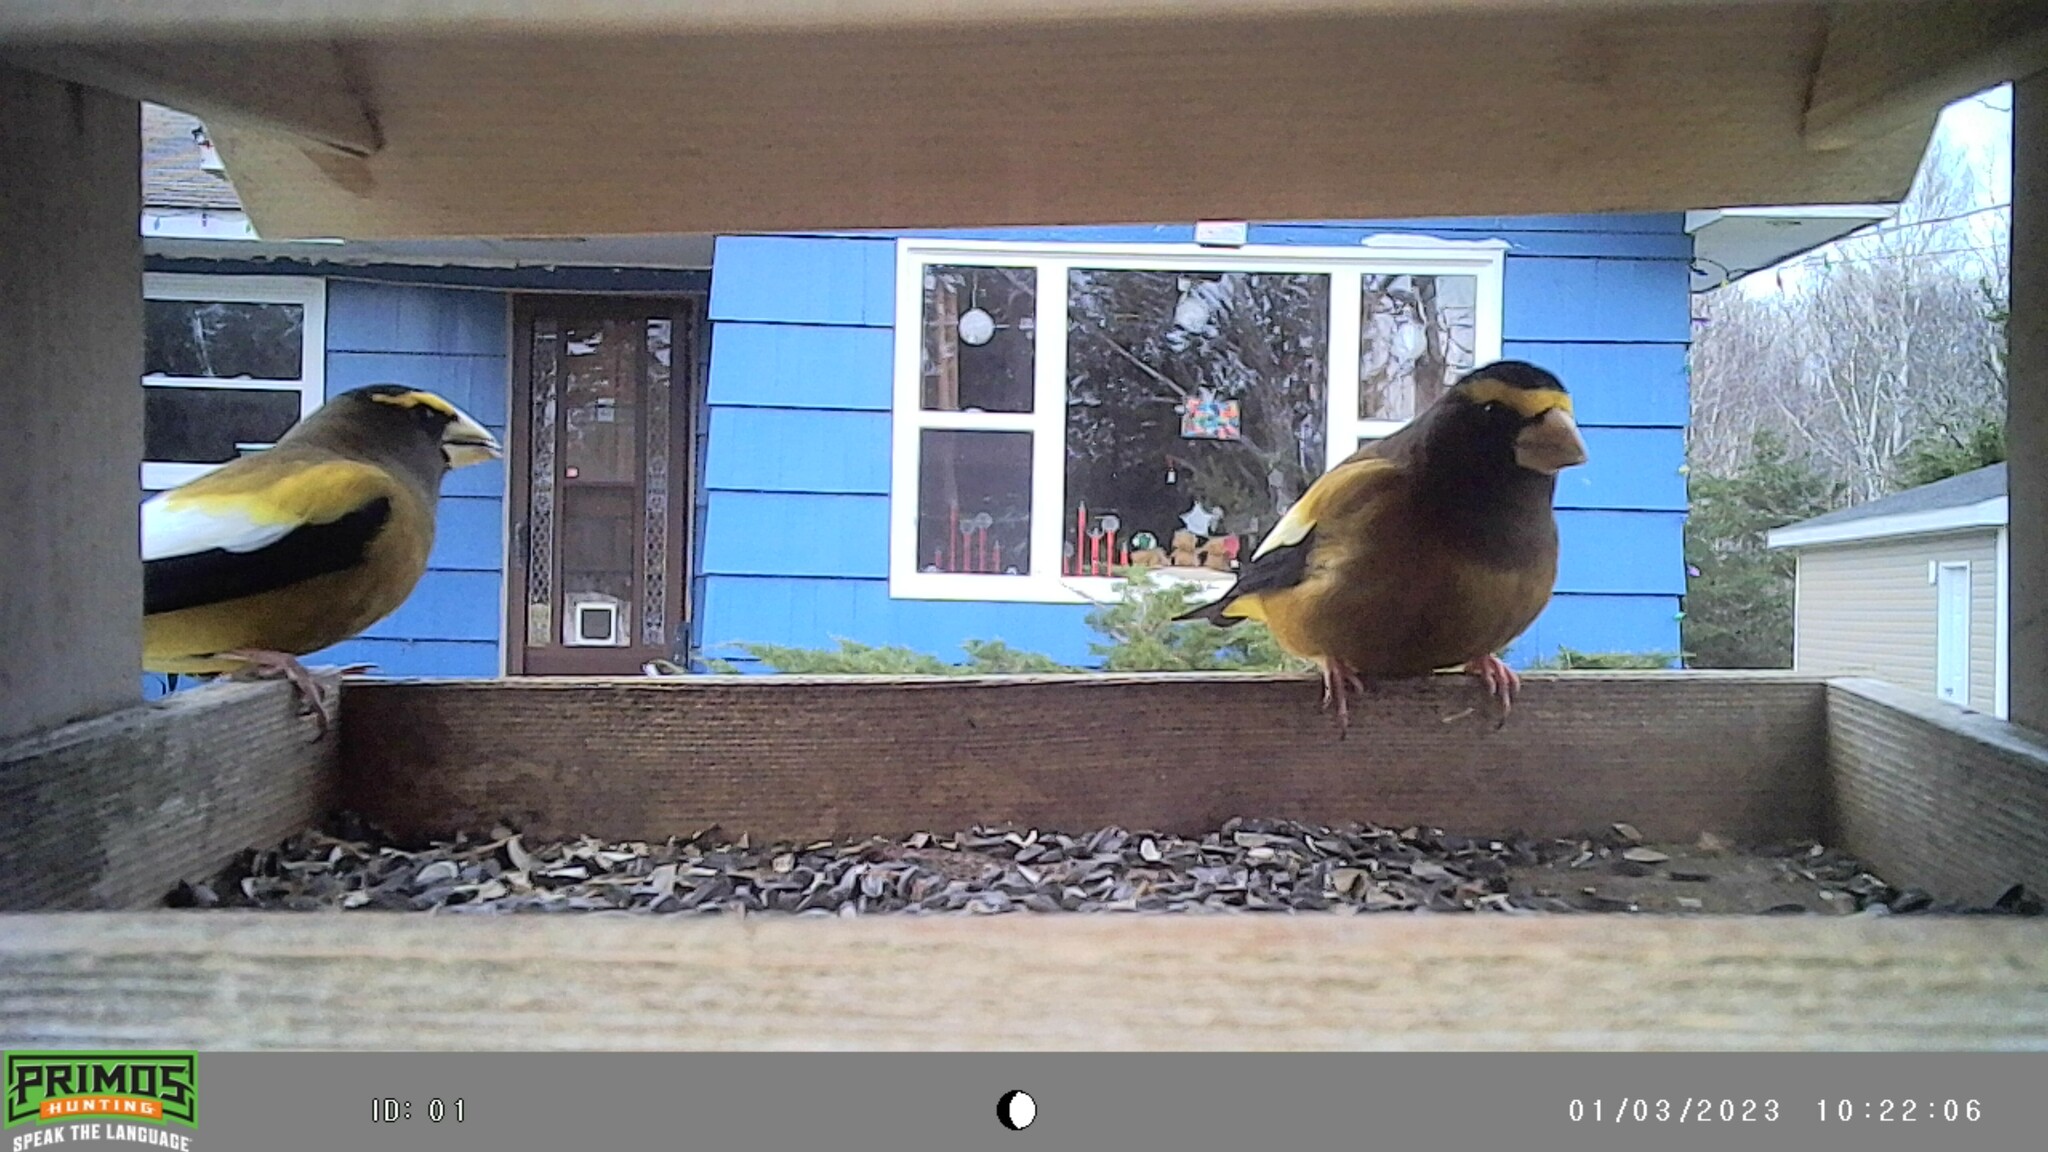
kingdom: Animalia
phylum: Chordata
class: Aves
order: Passeriformes
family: Fringillidae
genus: Hesperiphona
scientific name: Hesperiphona vespertina
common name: Evening grosbeak
